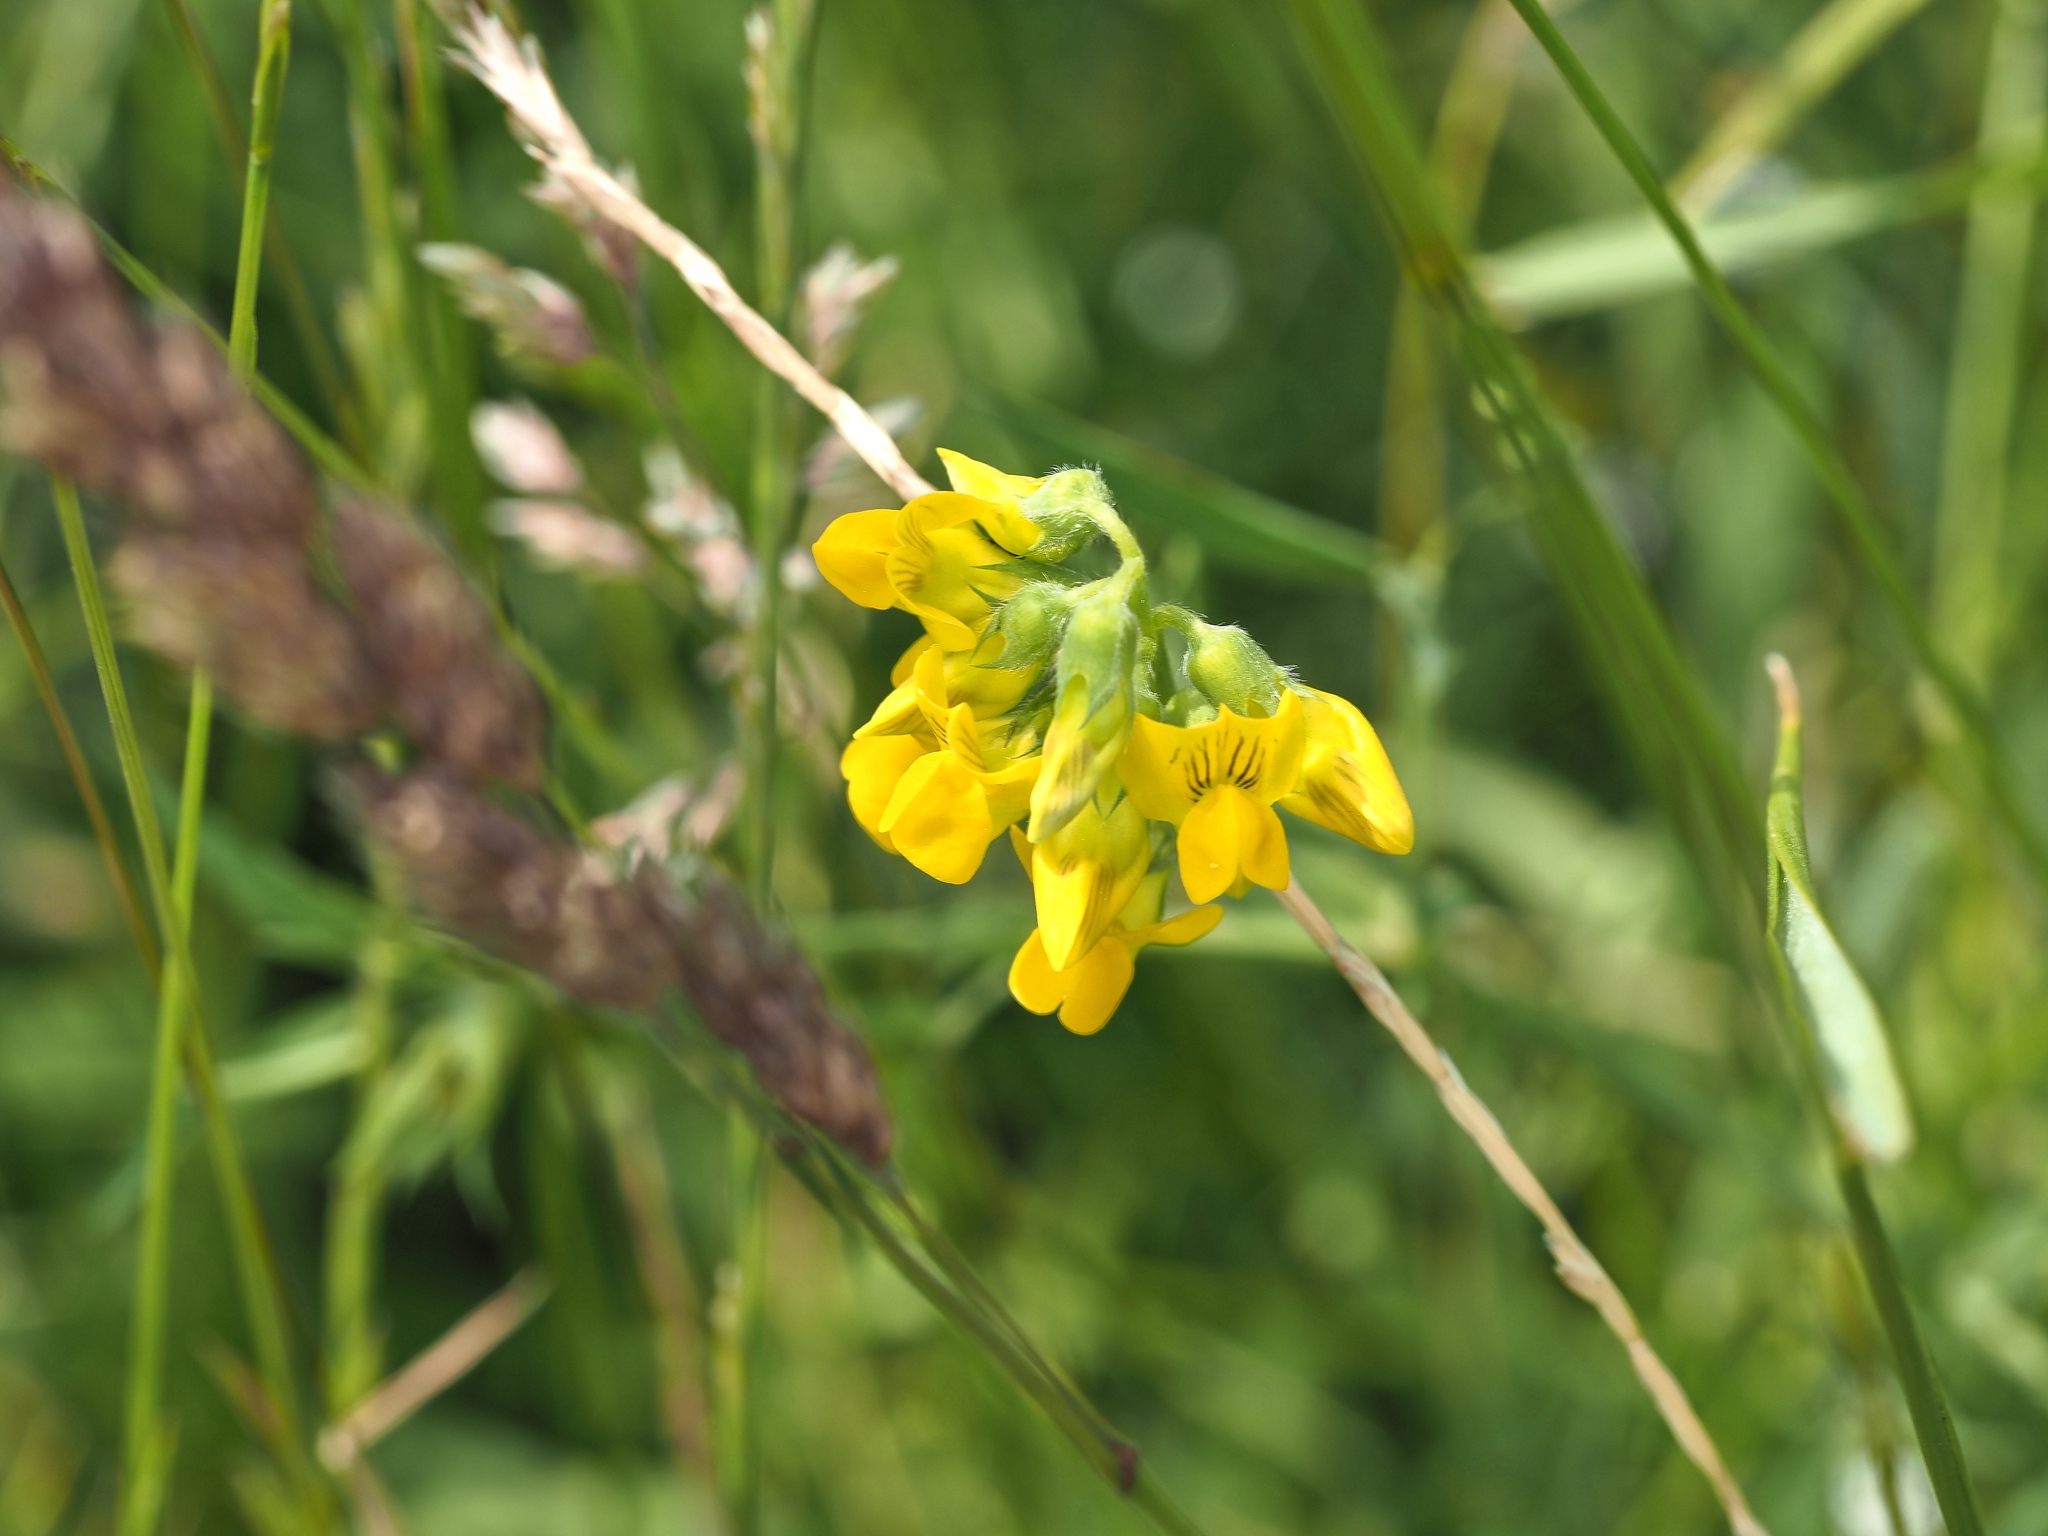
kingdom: Plantae
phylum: Tracheophyta
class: Magnoliopsida
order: Fabales
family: Fabaceae
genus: Lathyrus
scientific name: Lathyrus pratensis
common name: Meadow vetchling
